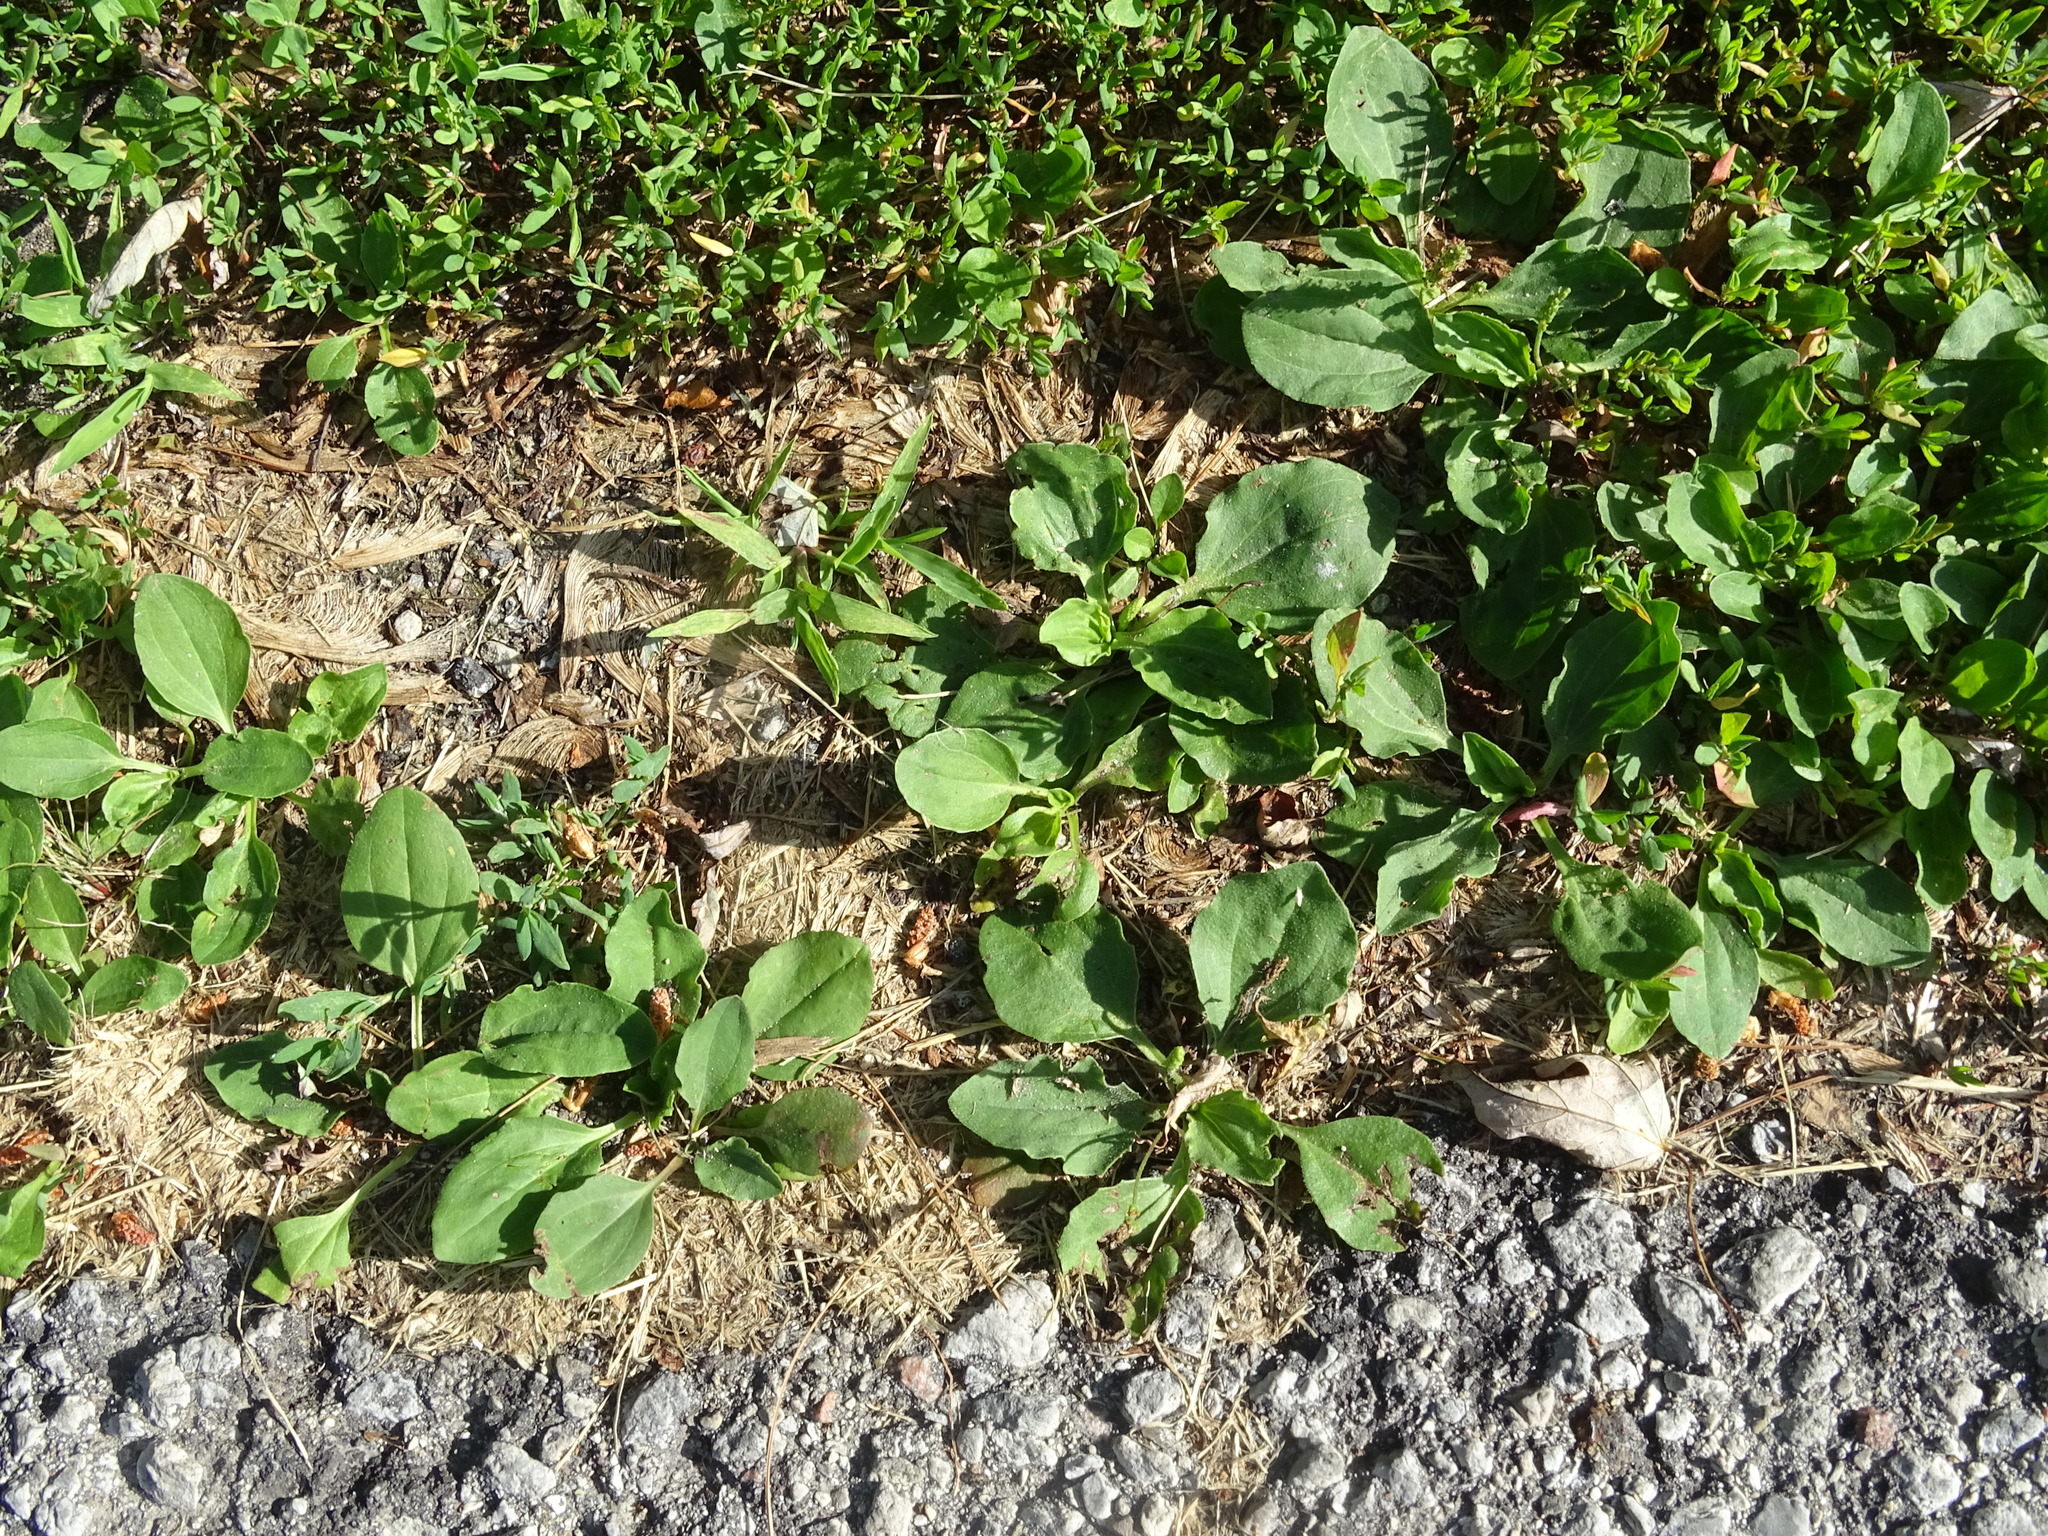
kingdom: Plantae
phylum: Tracheophyta
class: Magnoliopsida
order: Lamiales
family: Plantaginaceae
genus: Plantago
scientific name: Plantago major
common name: Common plantain
